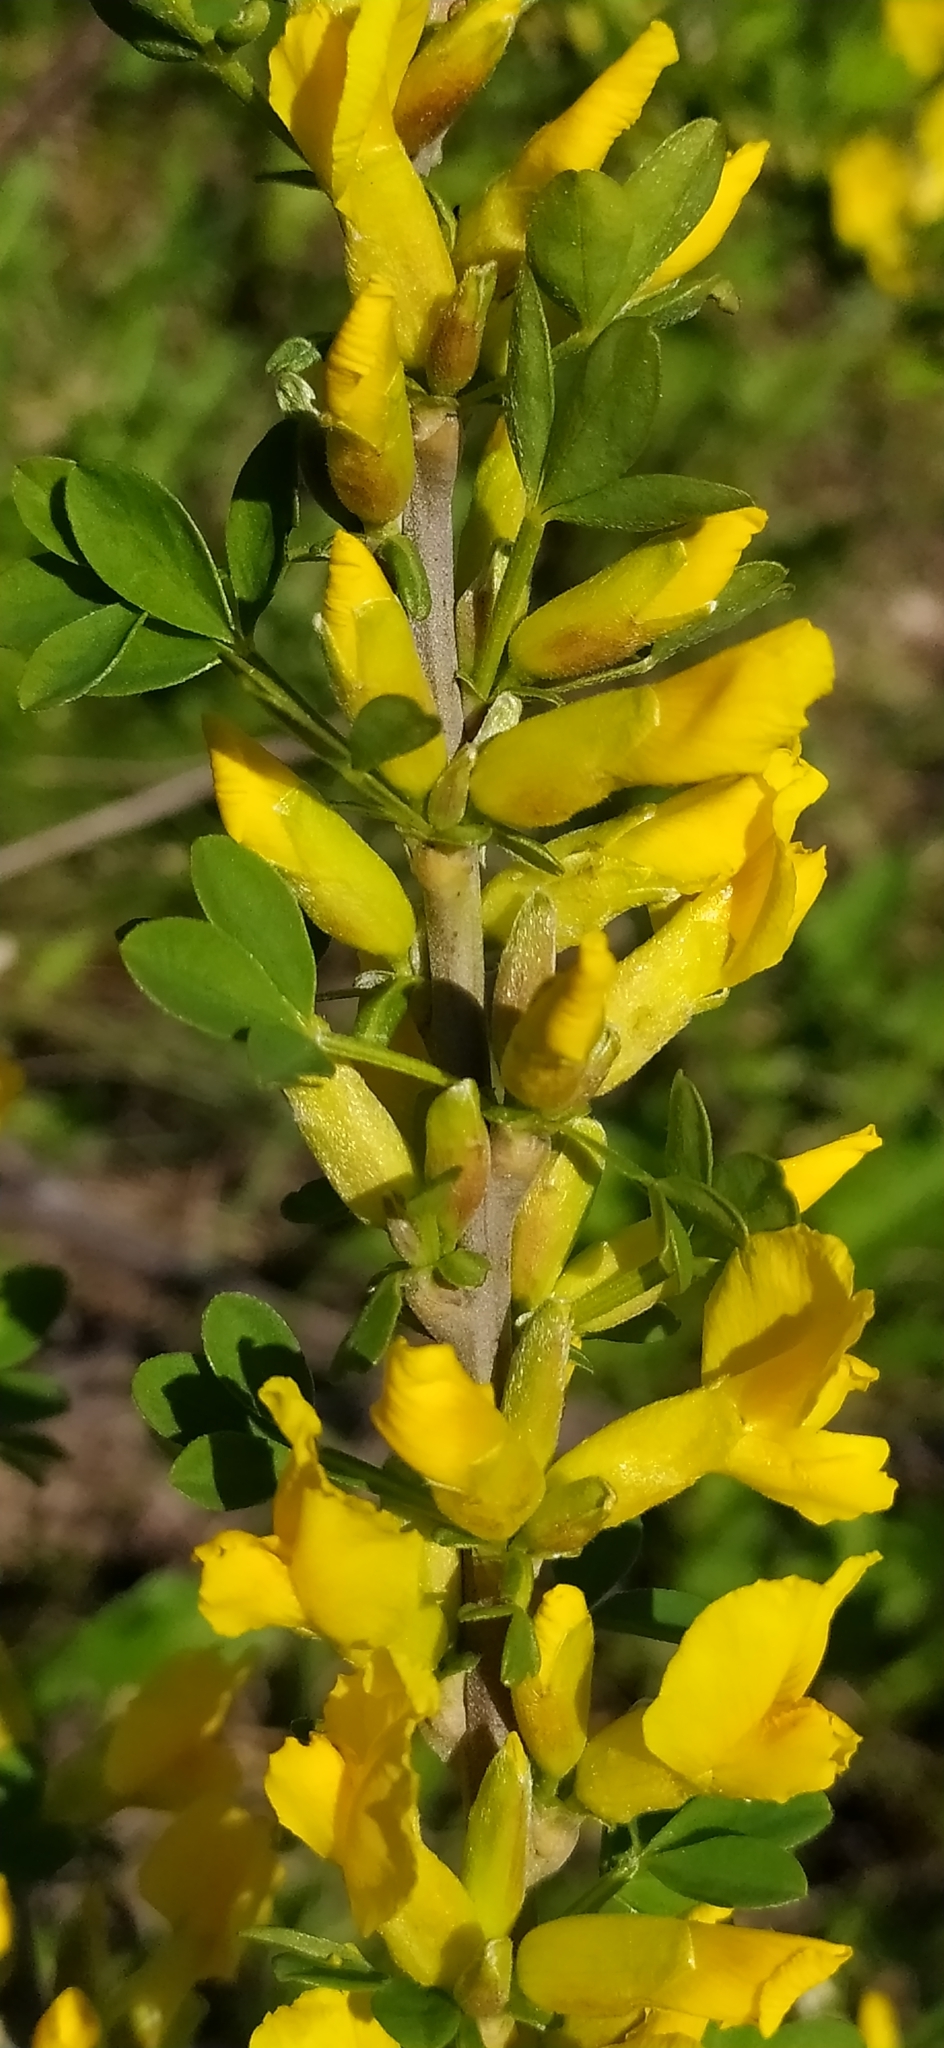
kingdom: Plantae
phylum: Tracheophyta
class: Magnoliopsida
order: Fabales
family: Fabaceae
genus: Chamaecytisus
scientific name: Chamaecytisus ruthenicus
